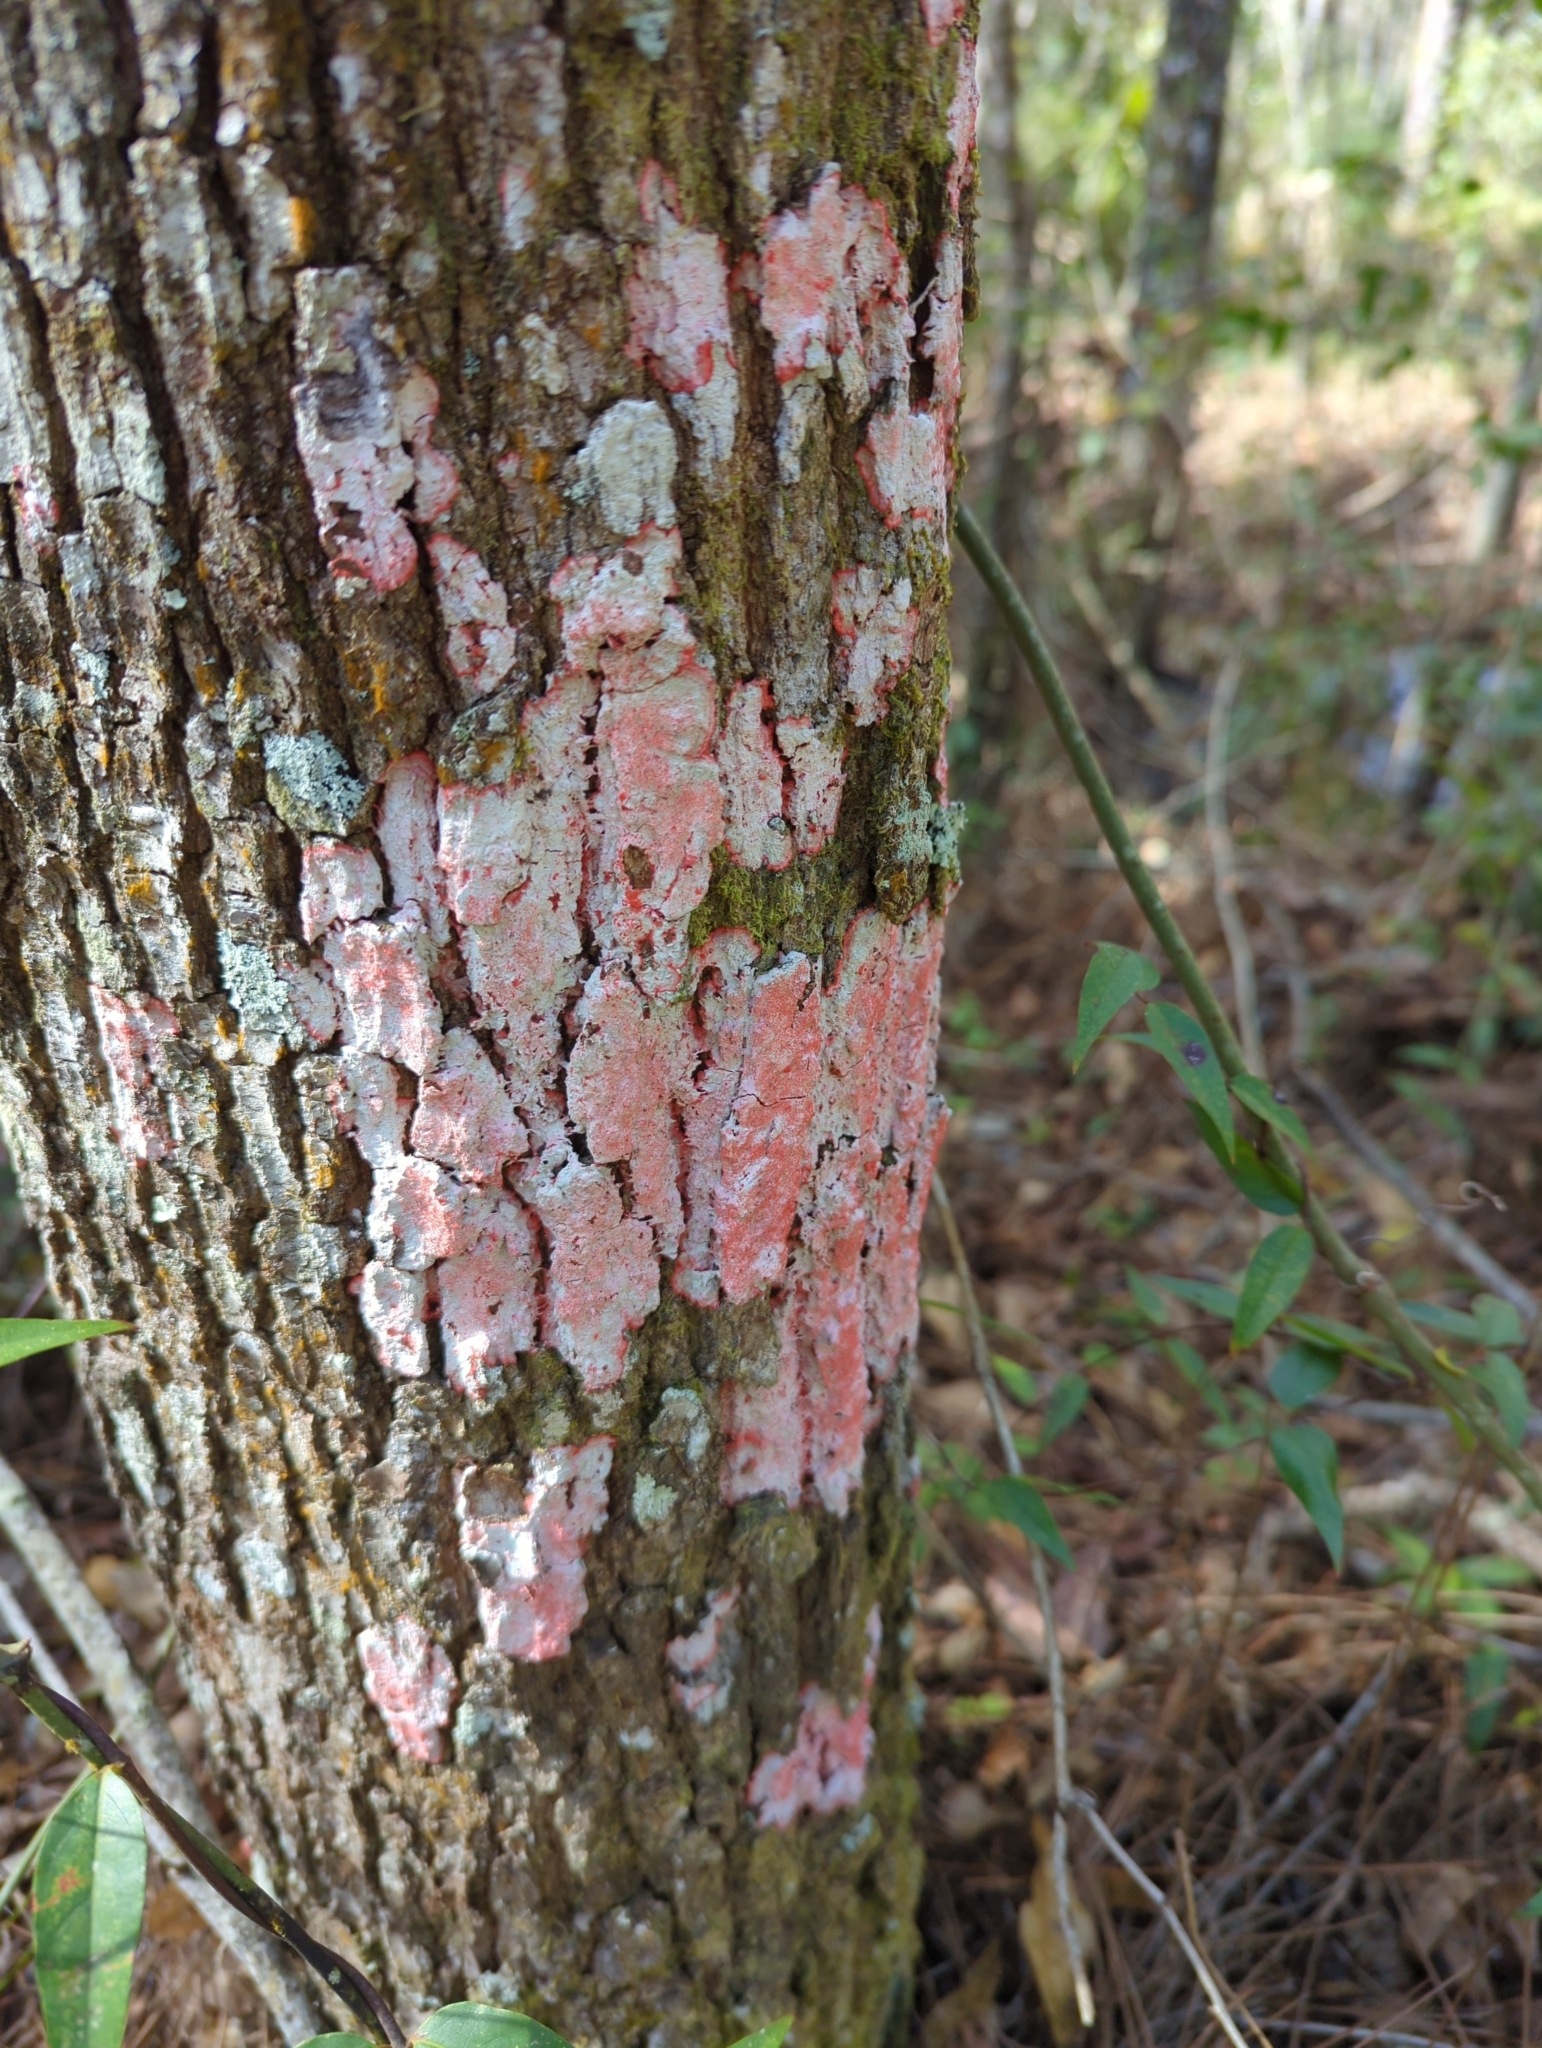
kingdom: Fungi
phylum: Ascomycota
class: Arthoniomycetes
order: Arthoniales
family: Arthoniaceae
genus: Herpothallon
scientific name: Herpothallon rubrocinctum
